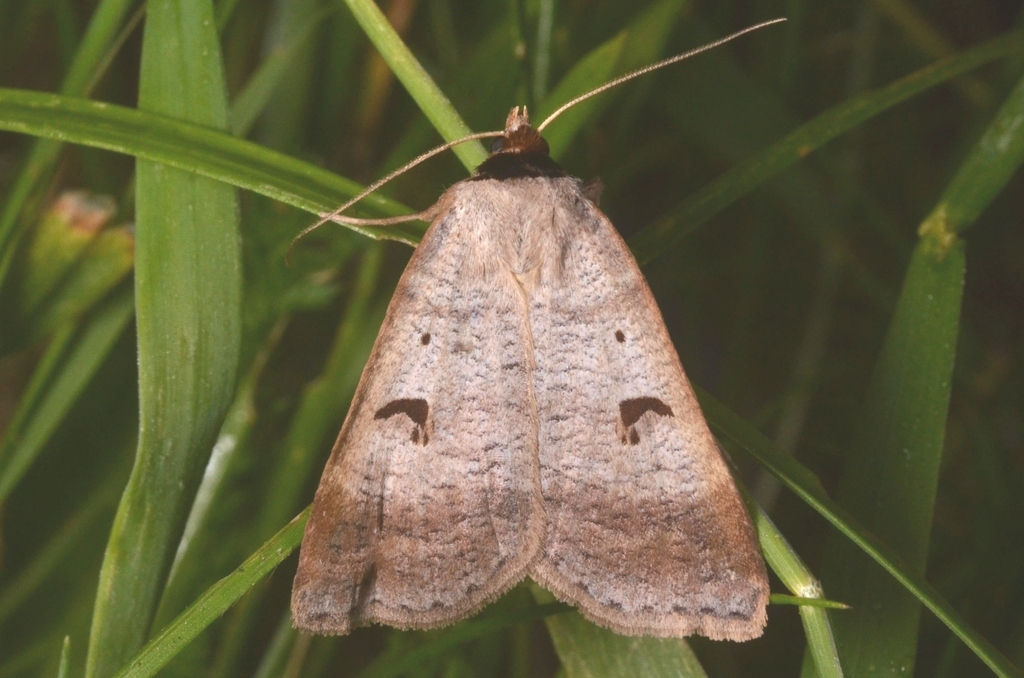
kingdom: Animalia
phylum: Arthropoda
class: Insecta
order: Lepidoptera
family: Erebidae
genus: Lygephila
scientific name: Lygephila pastinum
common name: Blackneck
